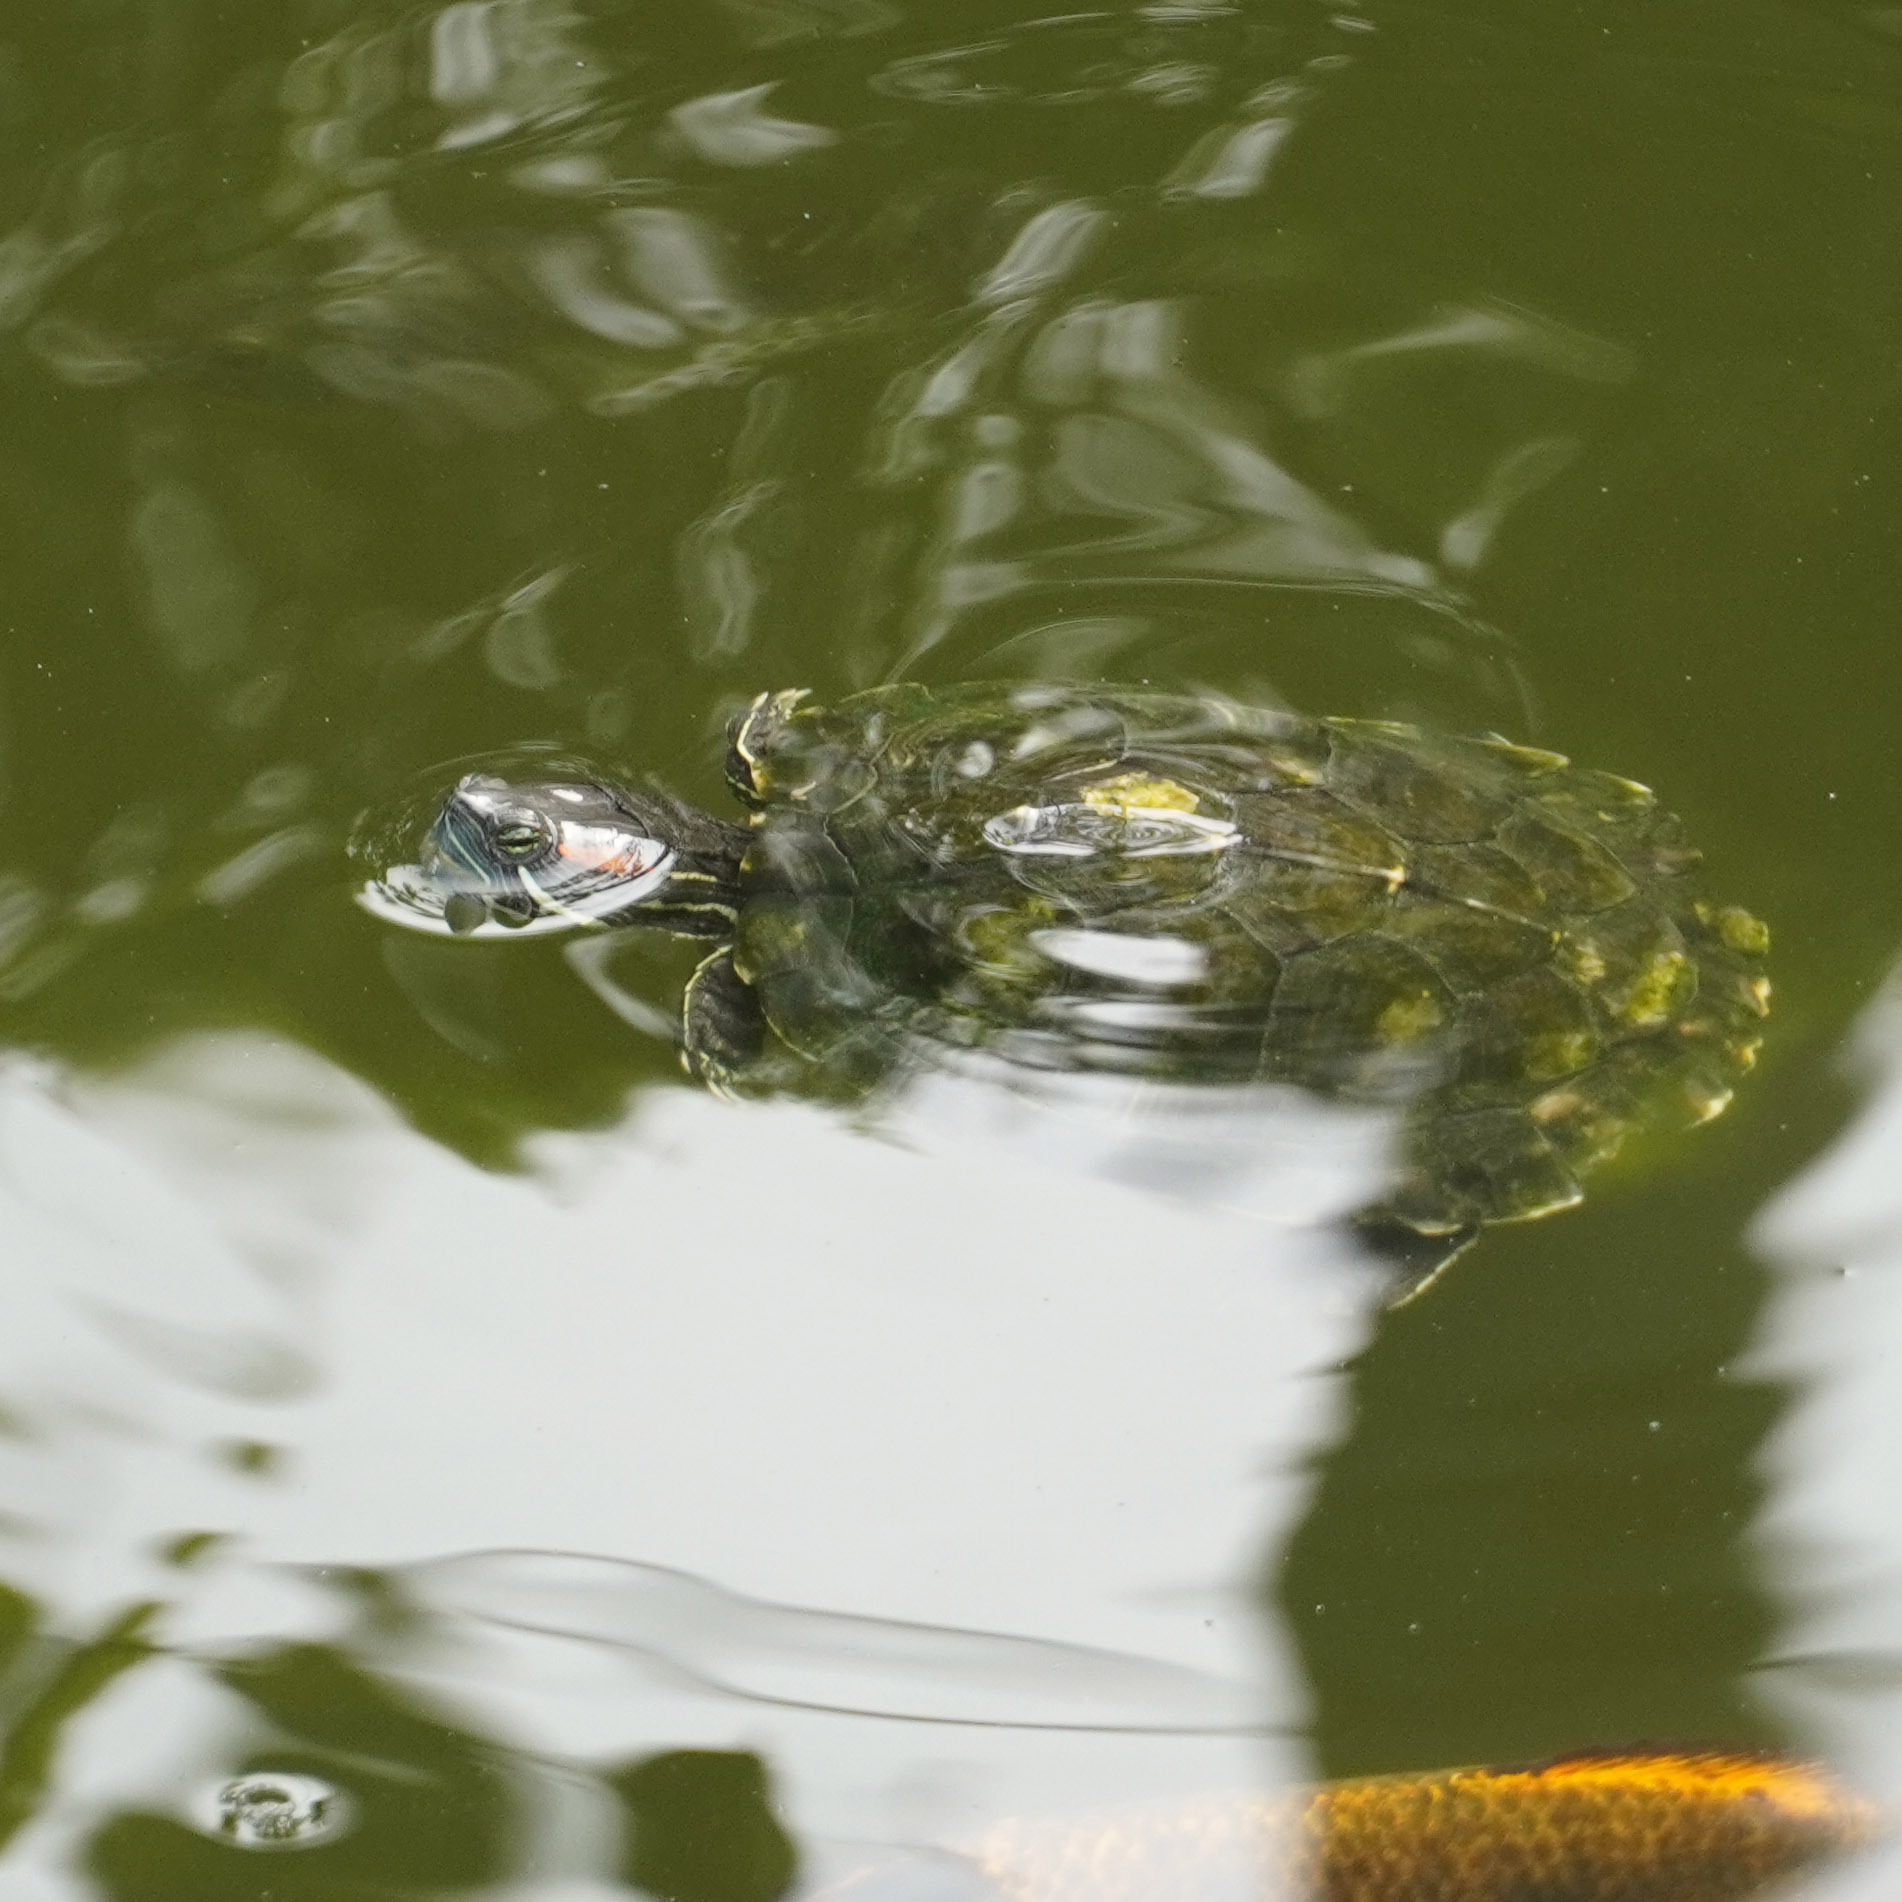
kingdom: Animalia
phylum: Chordata
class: Testudines
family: Emydidae
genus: Trachemys
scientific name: Trachemys scripta
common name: Slider
